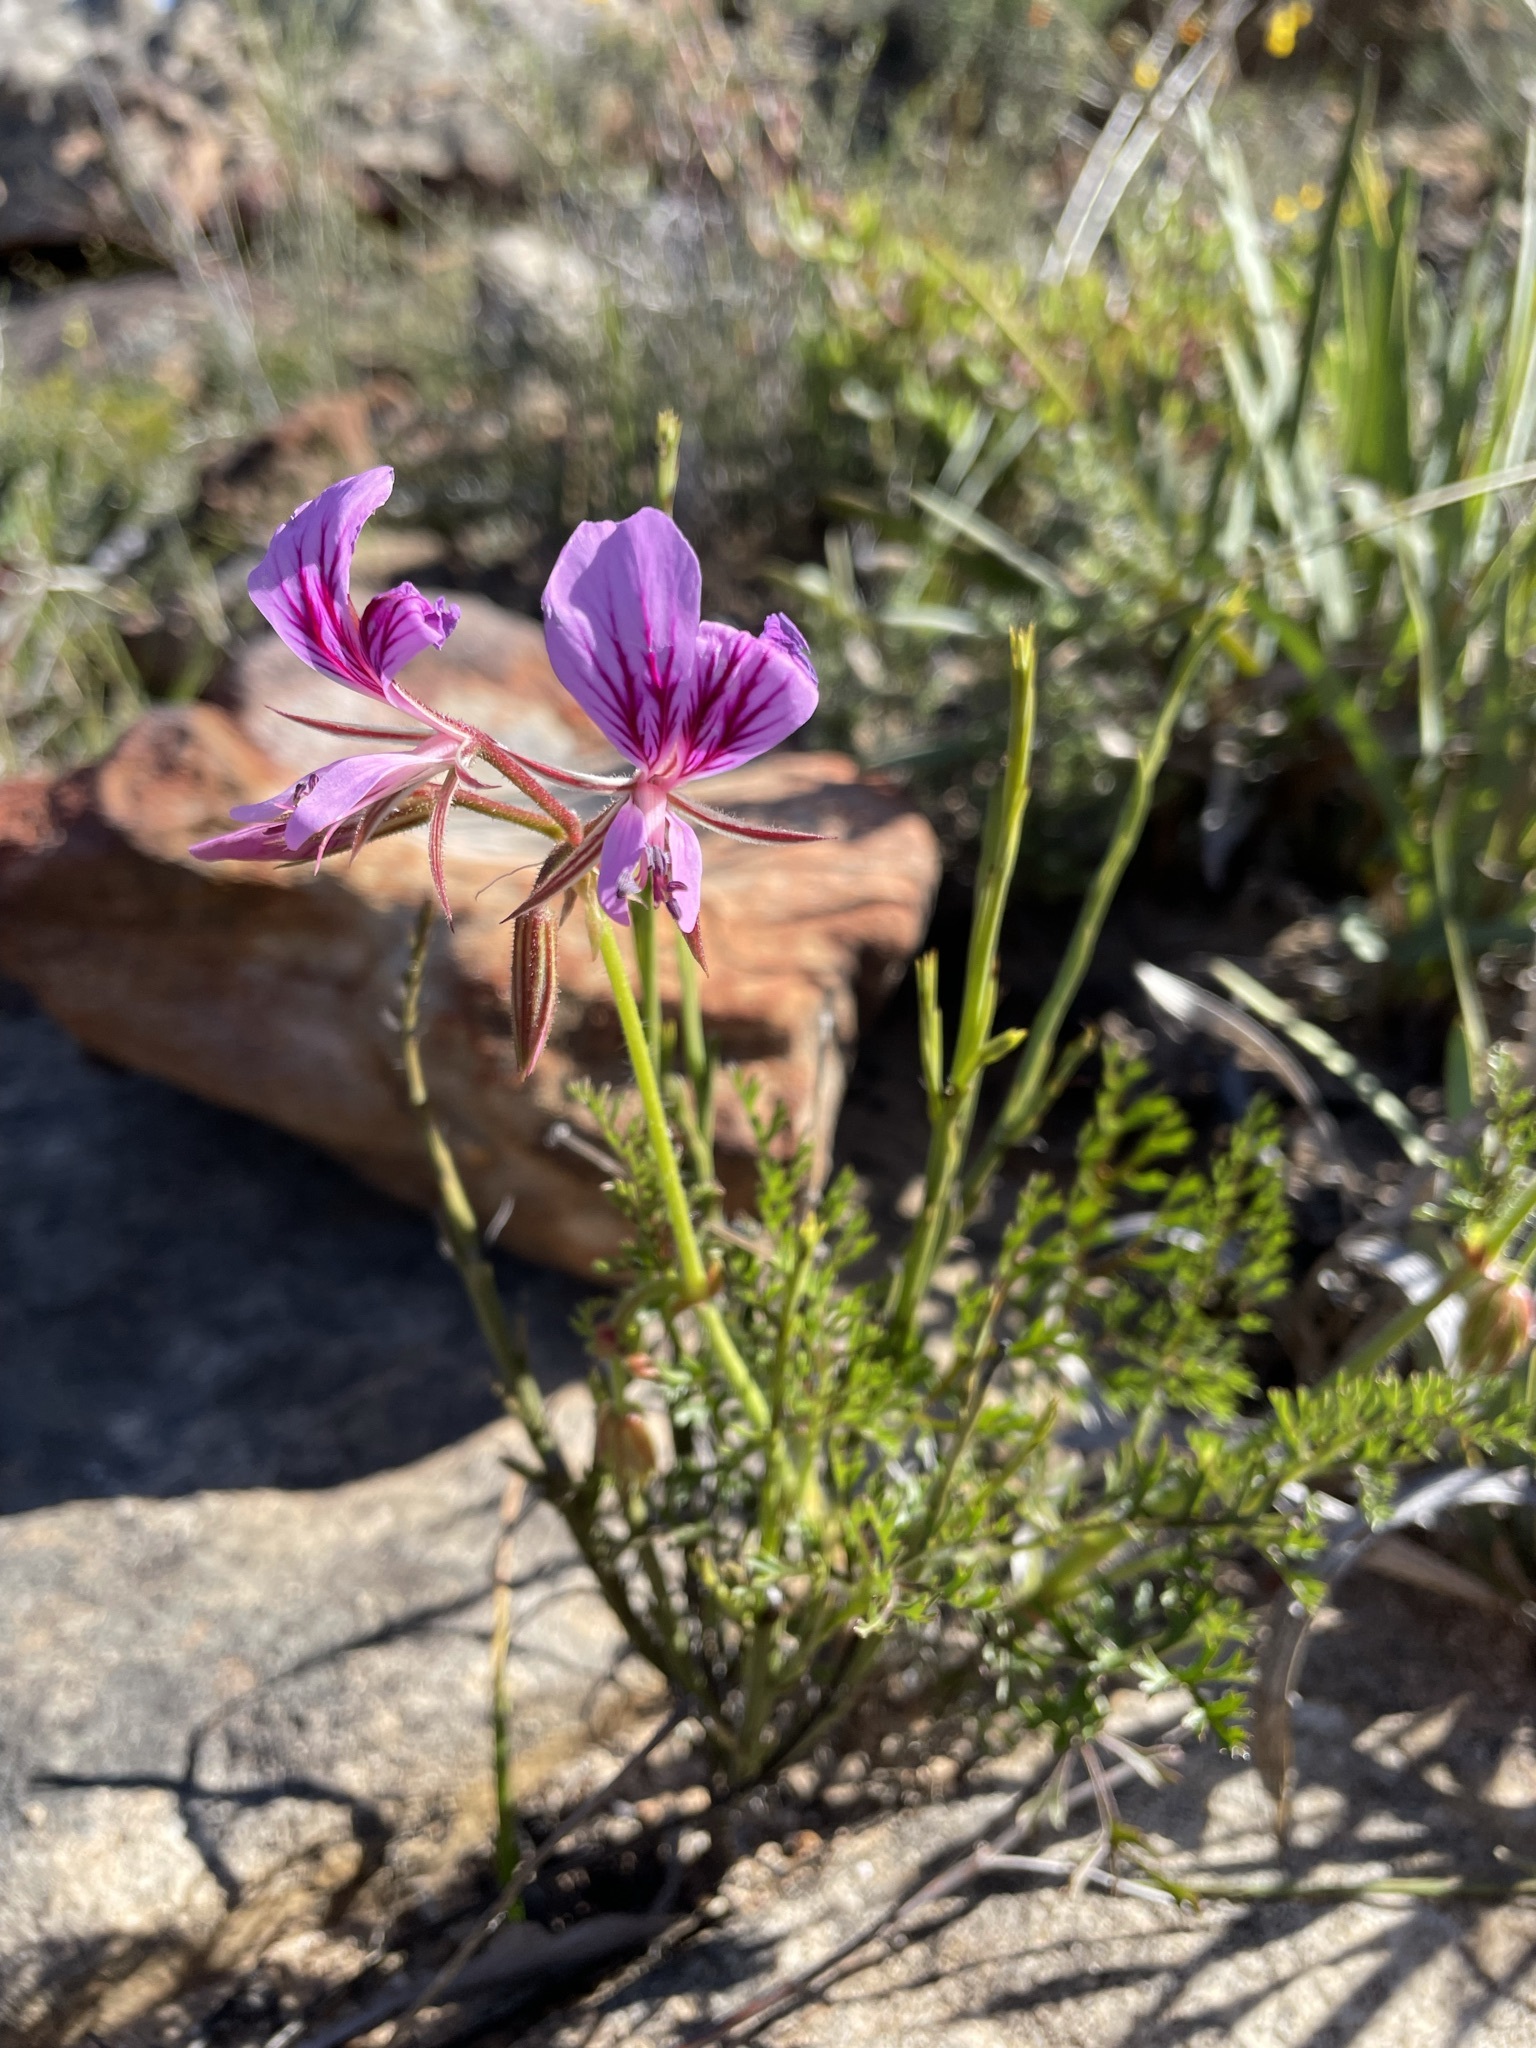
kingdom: Plantae
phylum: Tracheophyta
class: Magnoliopsida
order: Geraniales
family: Geraniaceae
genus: Pelargonium
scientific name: Pelargonium myrrhifolium
